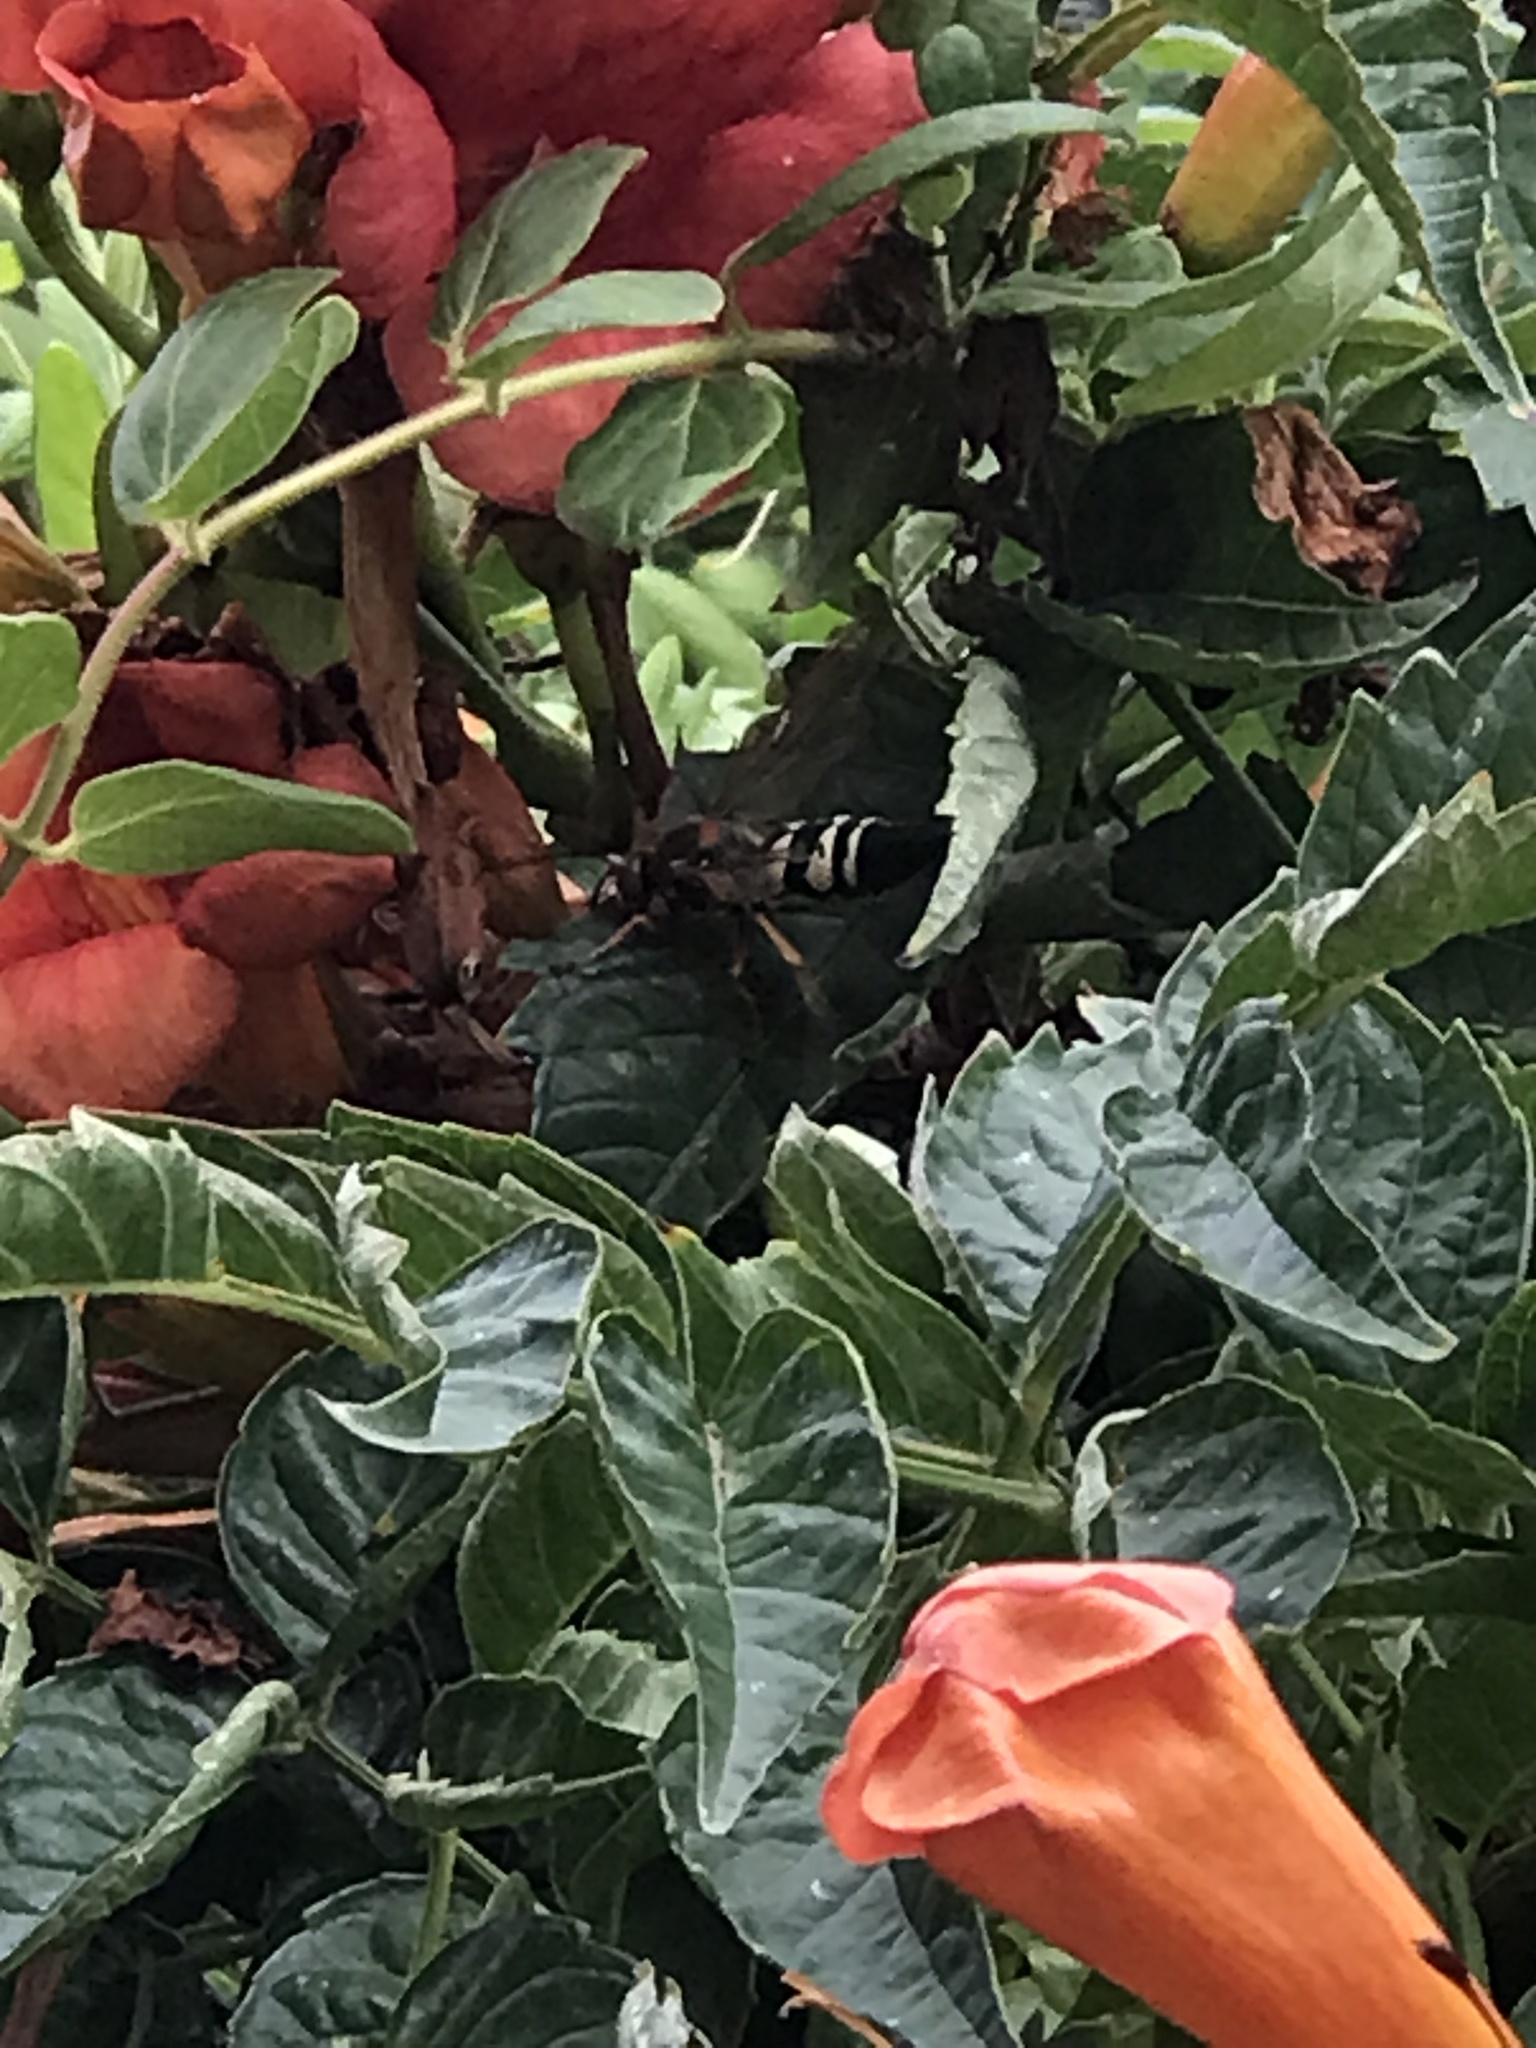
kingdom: Animalia
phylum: Arthropoda
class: Insecta
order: Hymenoptera
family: Crabronidae
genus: Sphecius
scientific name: Sphecius speciosus
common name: Cicada killer
